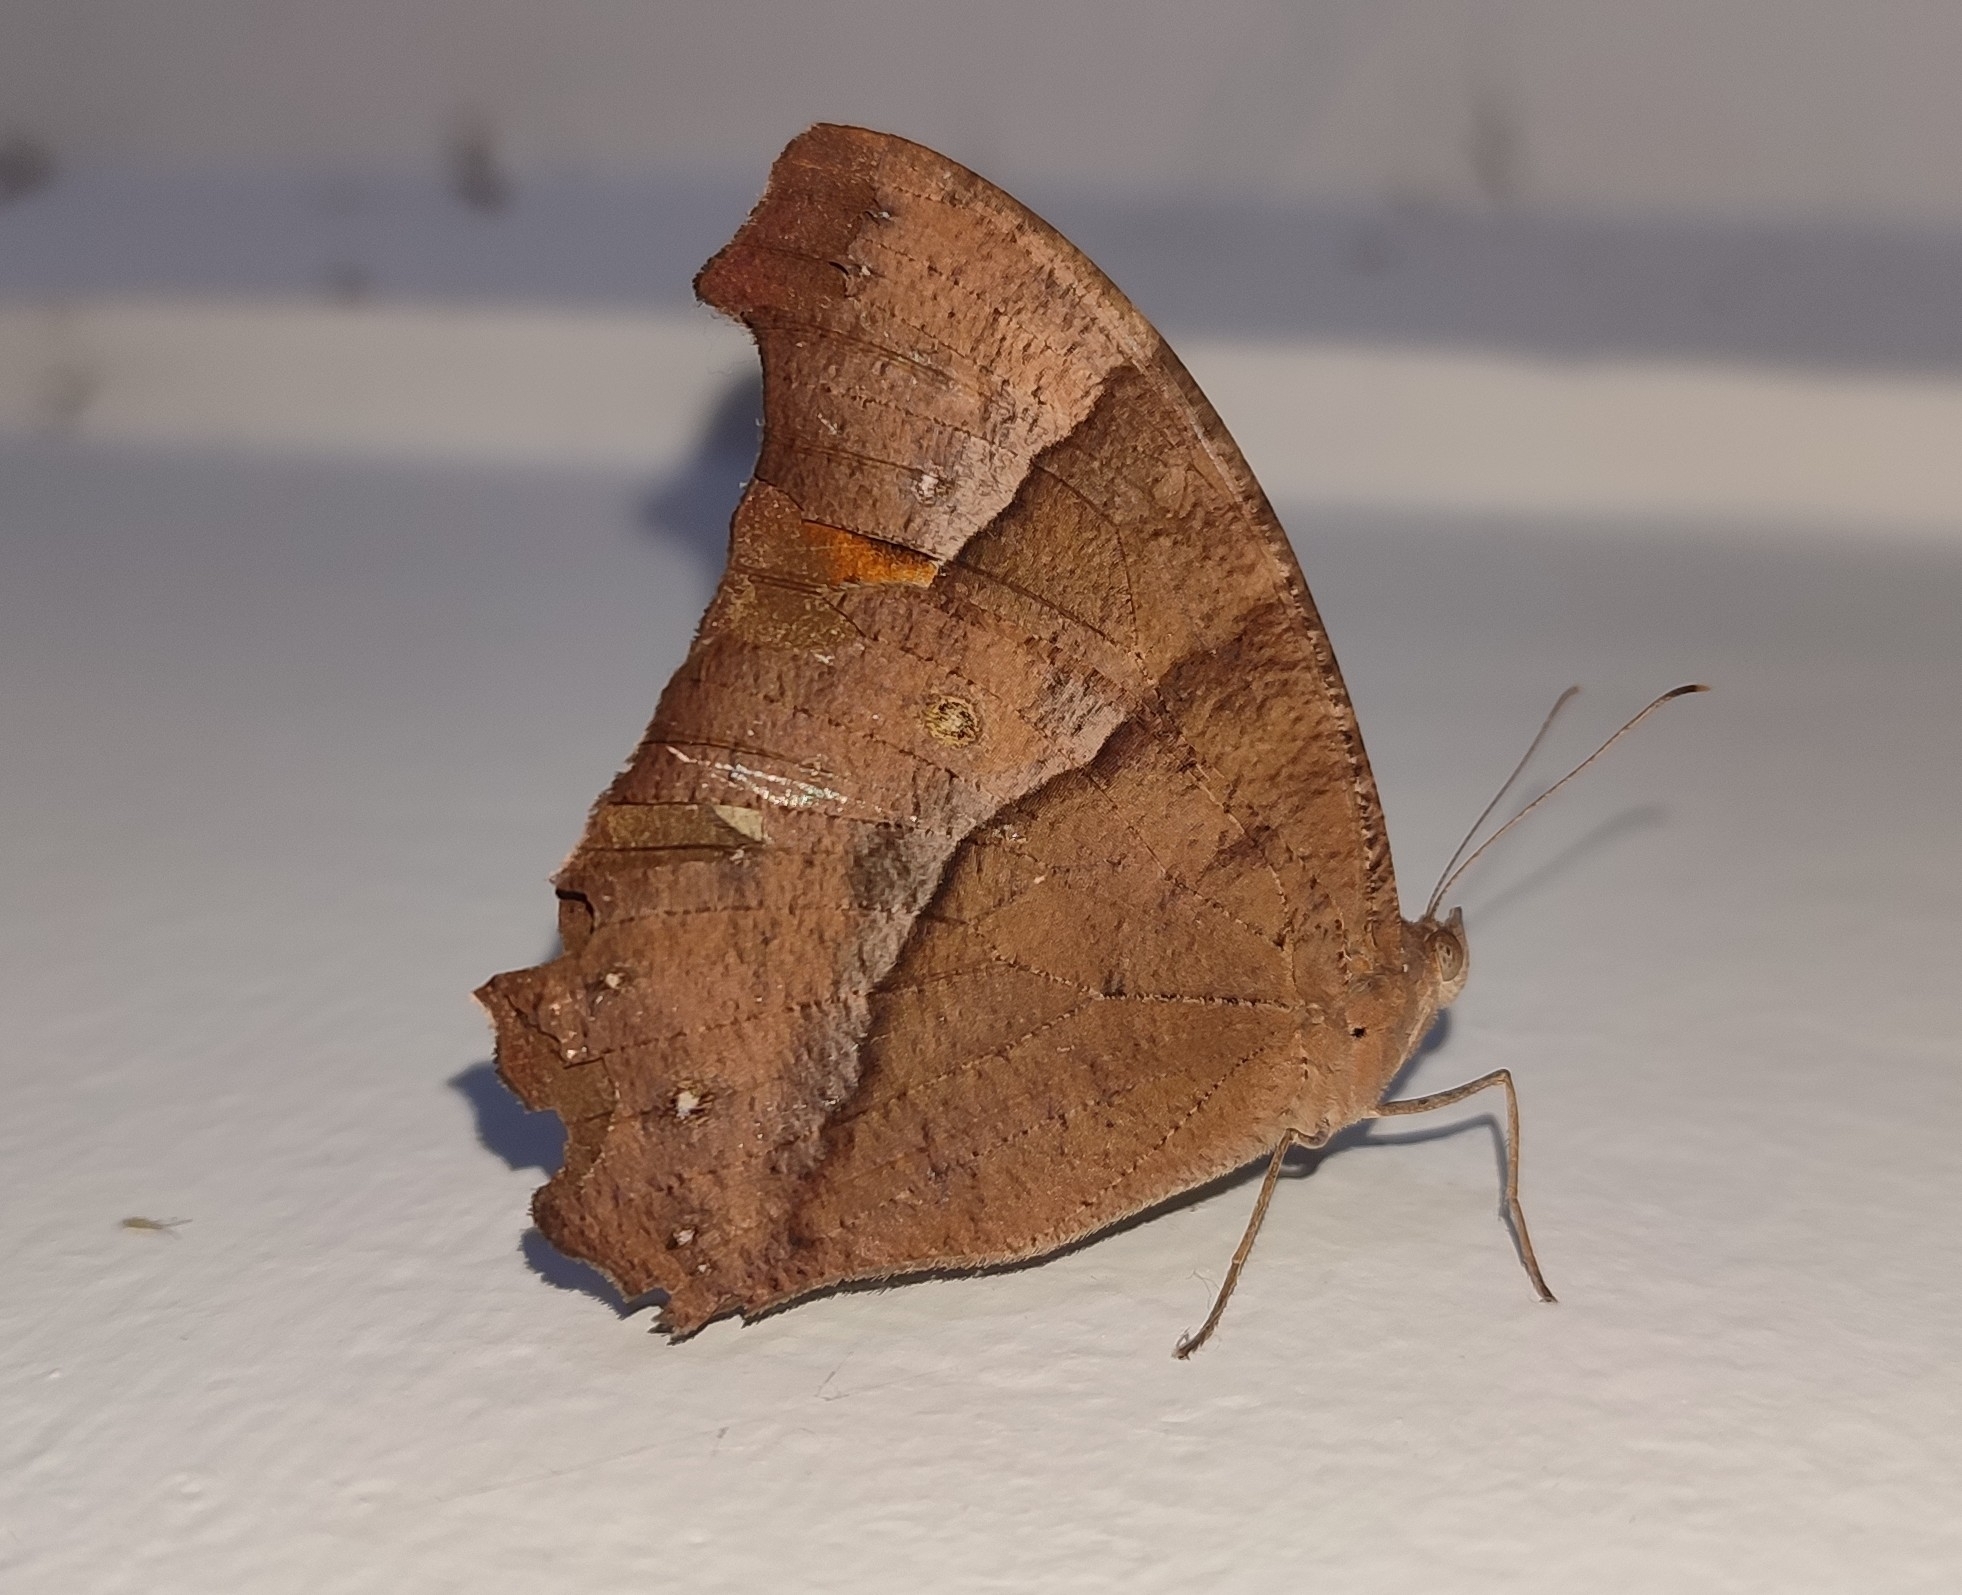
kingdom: Animalia
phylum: Arthropoda
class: Insecta
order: Lepidoptera
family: Nymphalidae
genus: Melanitis
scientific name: Melanitis leda
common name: Twilight brown
